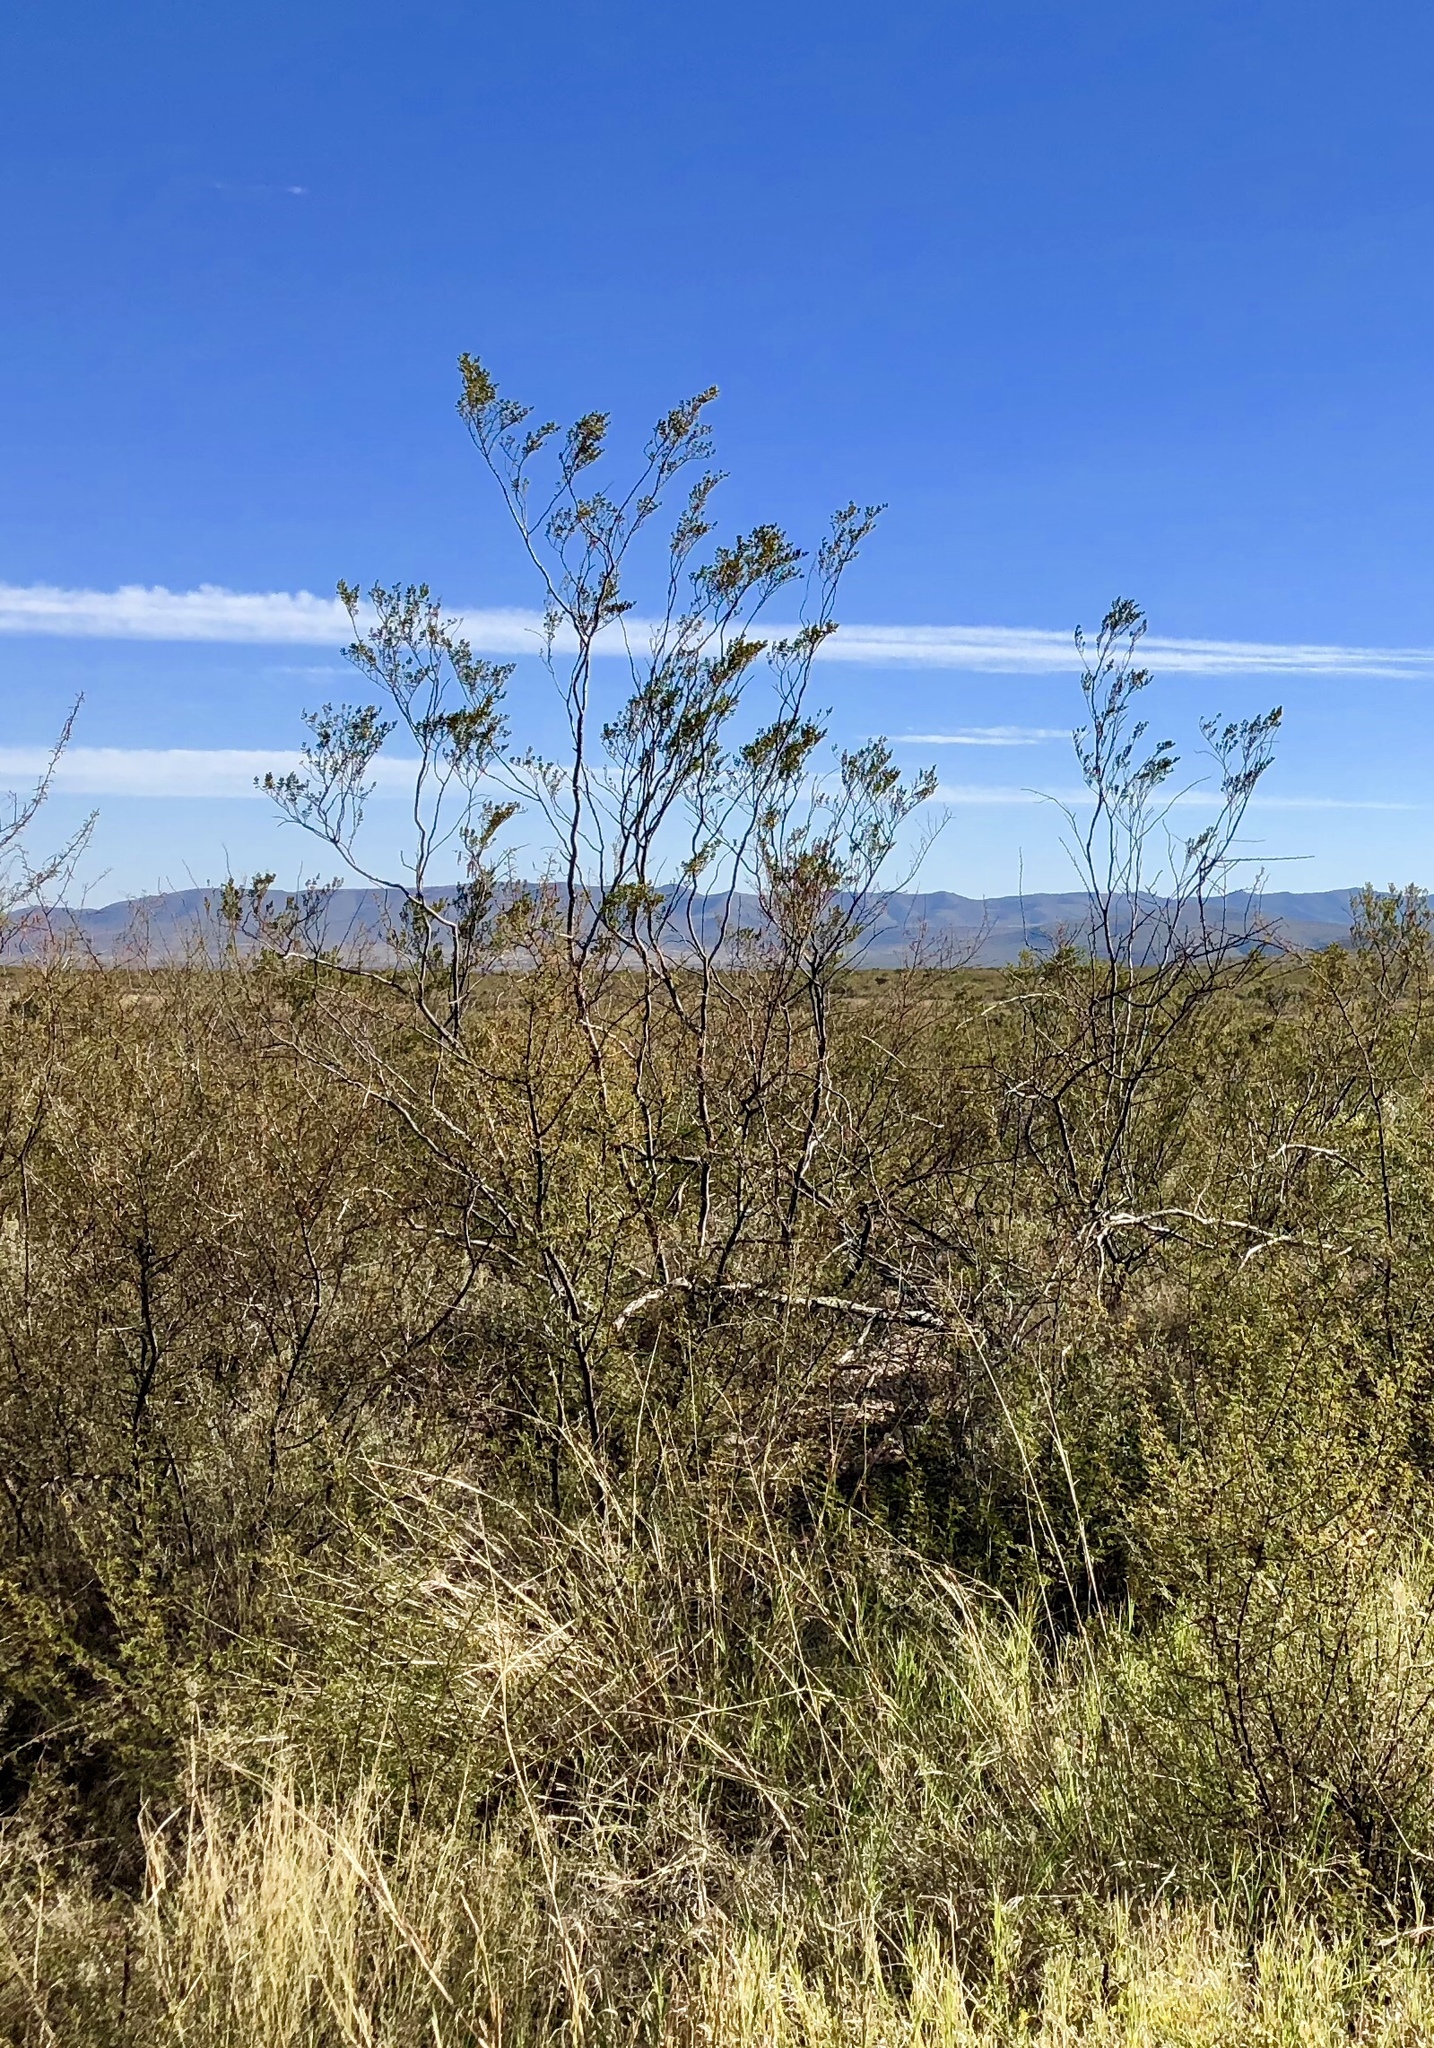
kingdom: Plantae
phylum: Tracheophyta
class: Magnoliopsida
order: Zygophyllales
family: Zygophyllaceae
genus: Larrea
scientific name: Larrea tridentata
